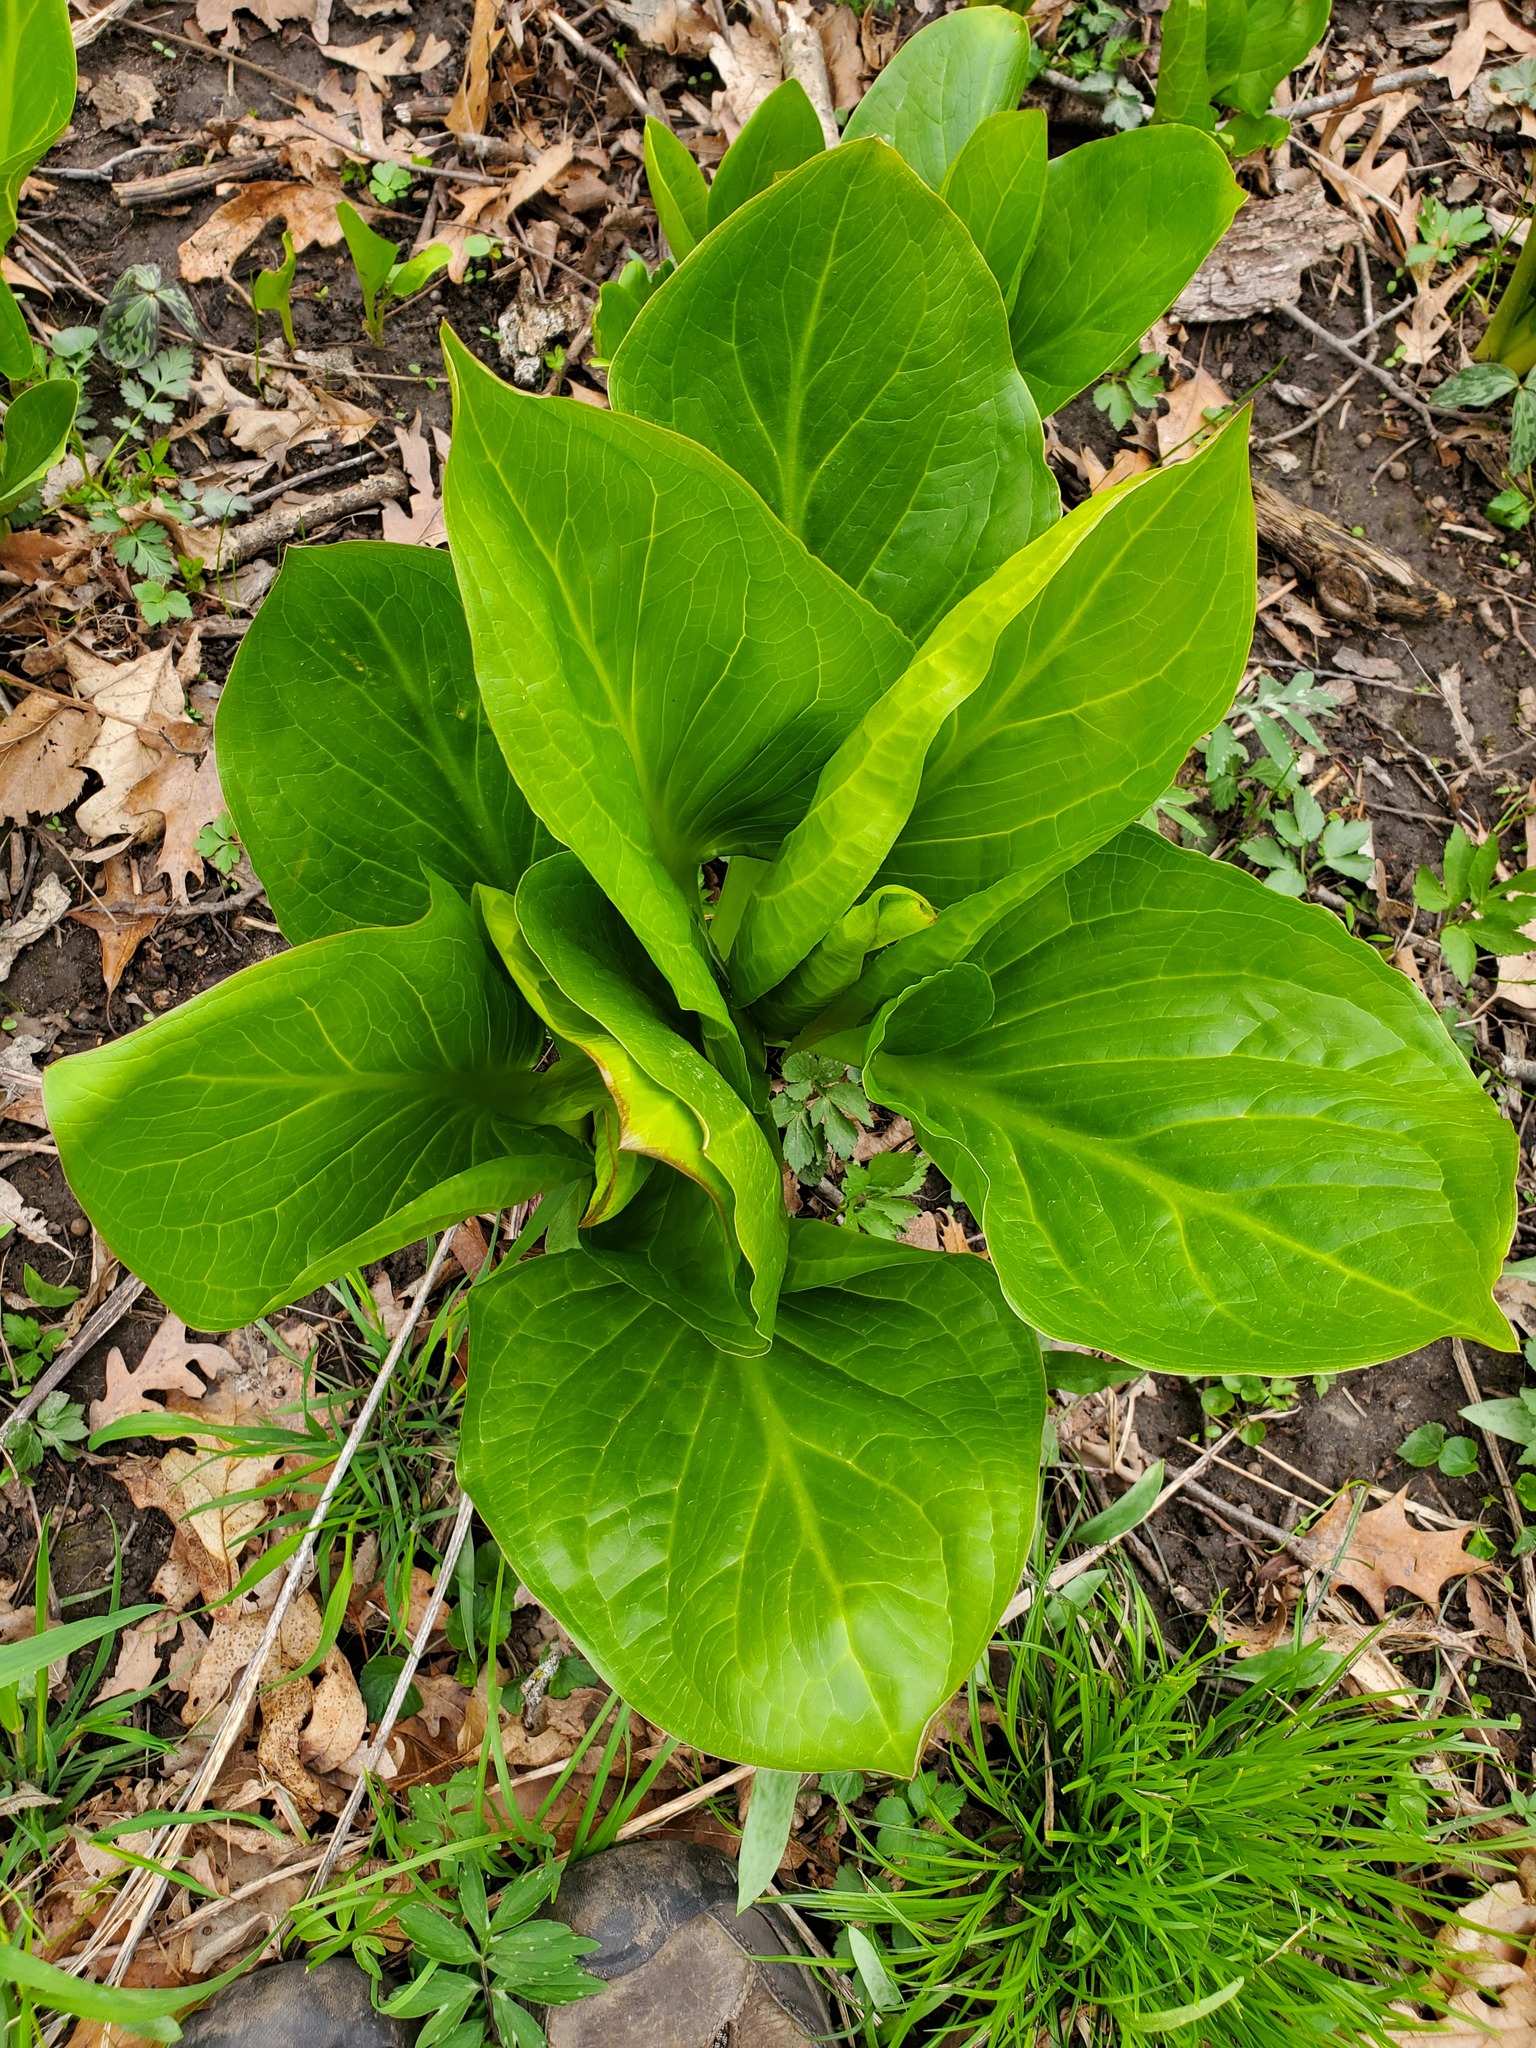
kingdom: Plantae
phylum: Tracheophyta
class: Liliopsida
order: Alismatales
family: Araceae
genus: Symplocarpus
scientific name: Symplocarpus foetidus
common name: Eastern skunk cabbage
